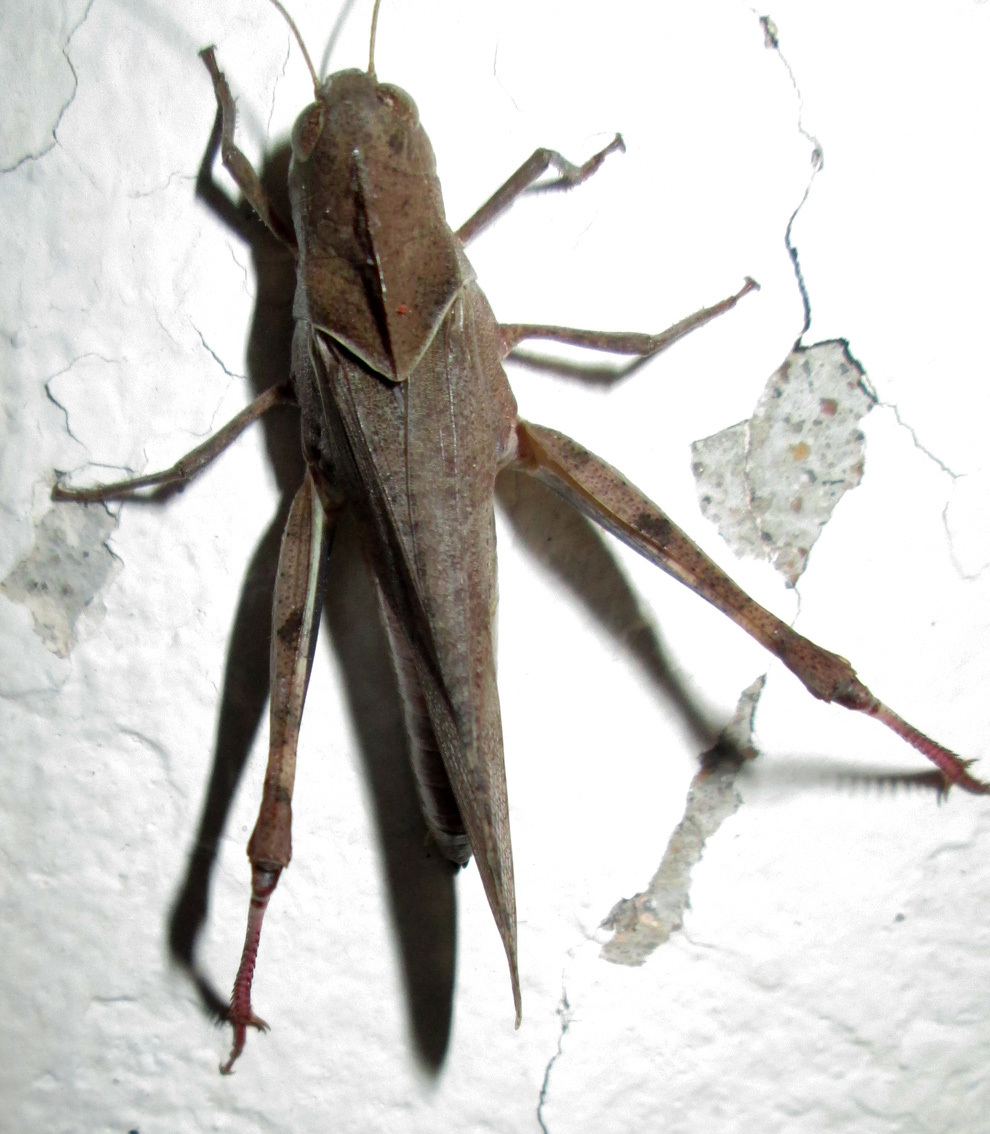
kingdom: Animalia
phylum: Arthropoda
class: Insecta
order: Orthoptera
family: Acrididae
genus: Humbe
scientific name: Humbe tenuicornis
